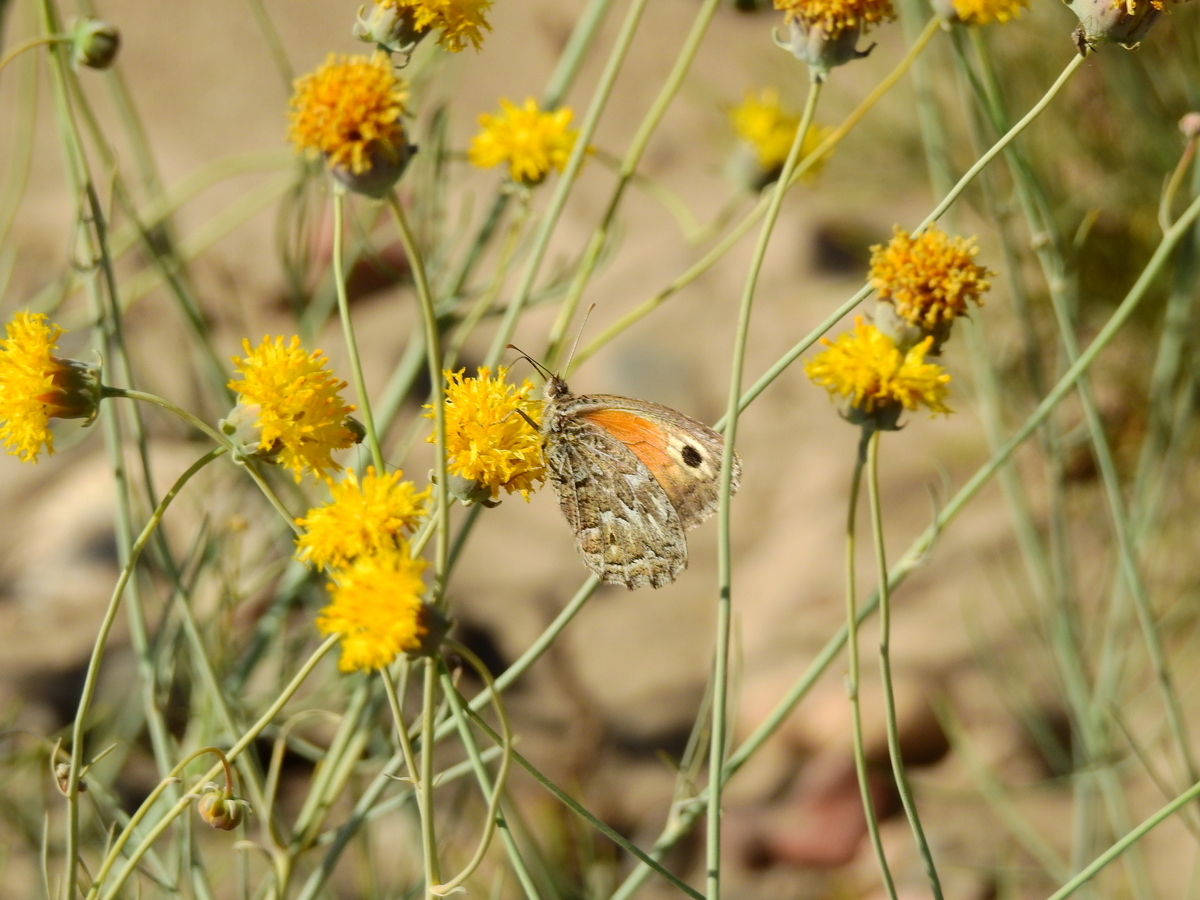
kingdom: Plantae
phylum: Tracheophyta
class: Magnoliopsida
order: Asterales
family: Asteraceae
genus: Thelesperma
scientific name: Thelesperma megapotamicum
